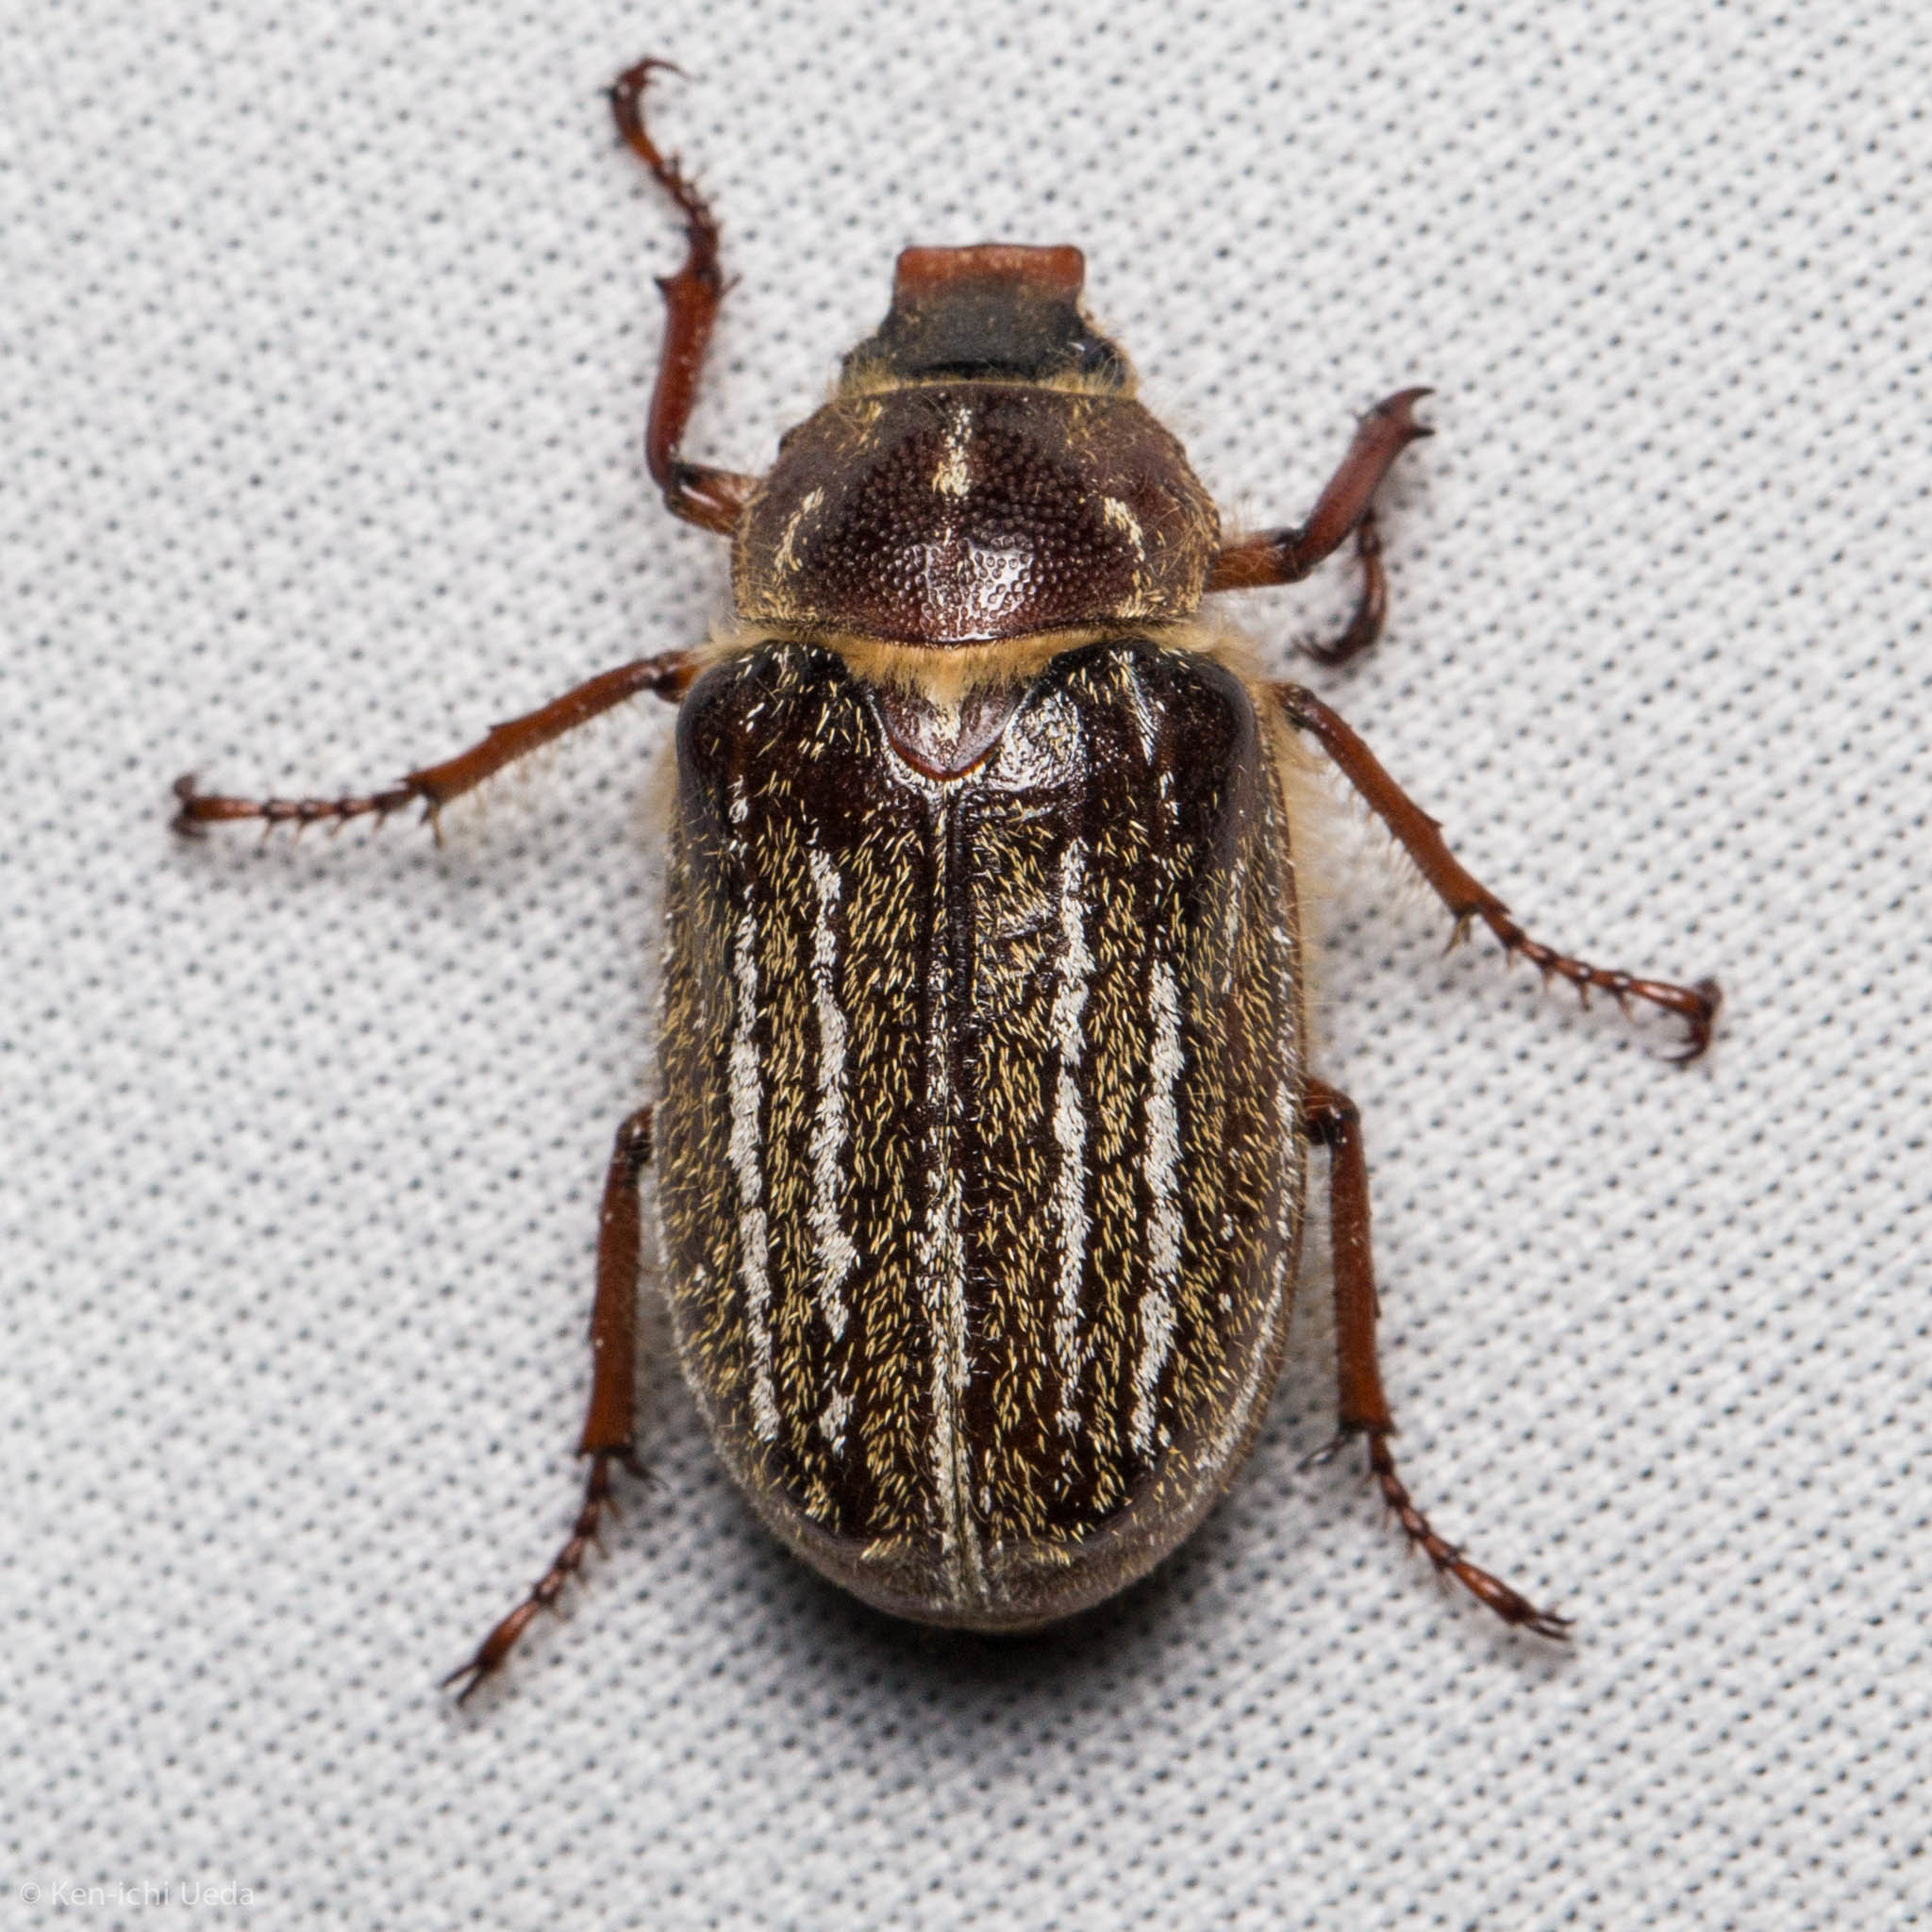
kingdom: Animalia
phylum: Arthropoda
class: Insecta
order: Coleoptera
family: Scarabaeidae
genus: Polyphylla
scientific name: Polyphylla barbata
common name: Mount hermon june beetle
